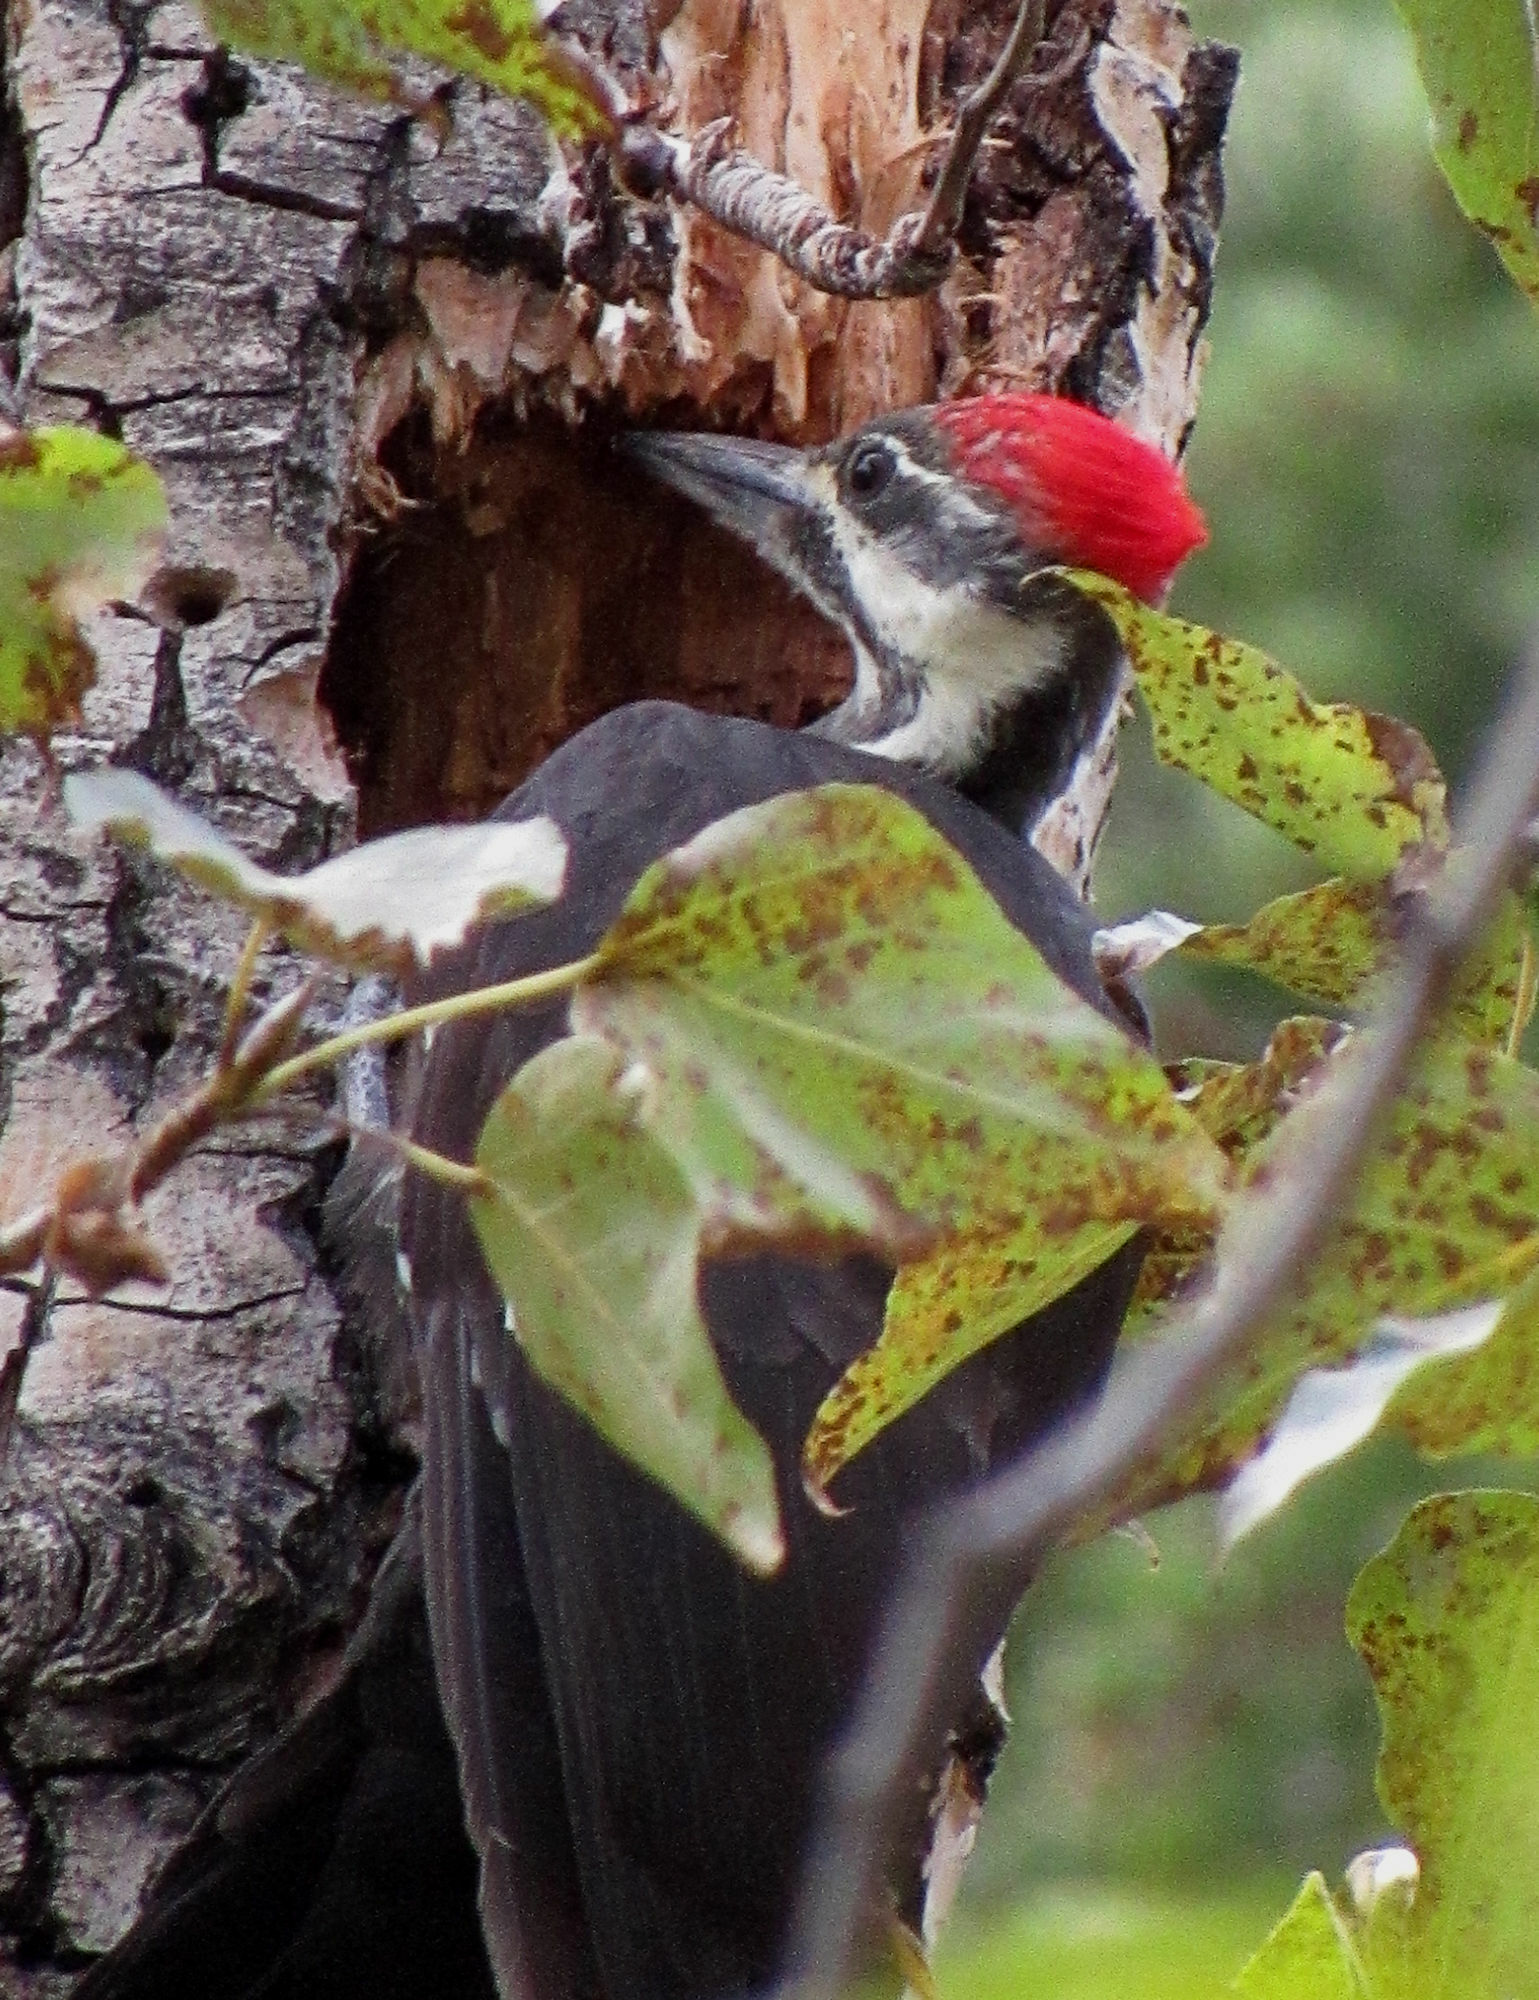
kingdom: Animalia
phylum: Chordata
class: Aves
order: Piciformes
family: Picidae
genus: Dryocopus
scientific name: Dryocopus pileatus
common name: Pileated woodpecker
